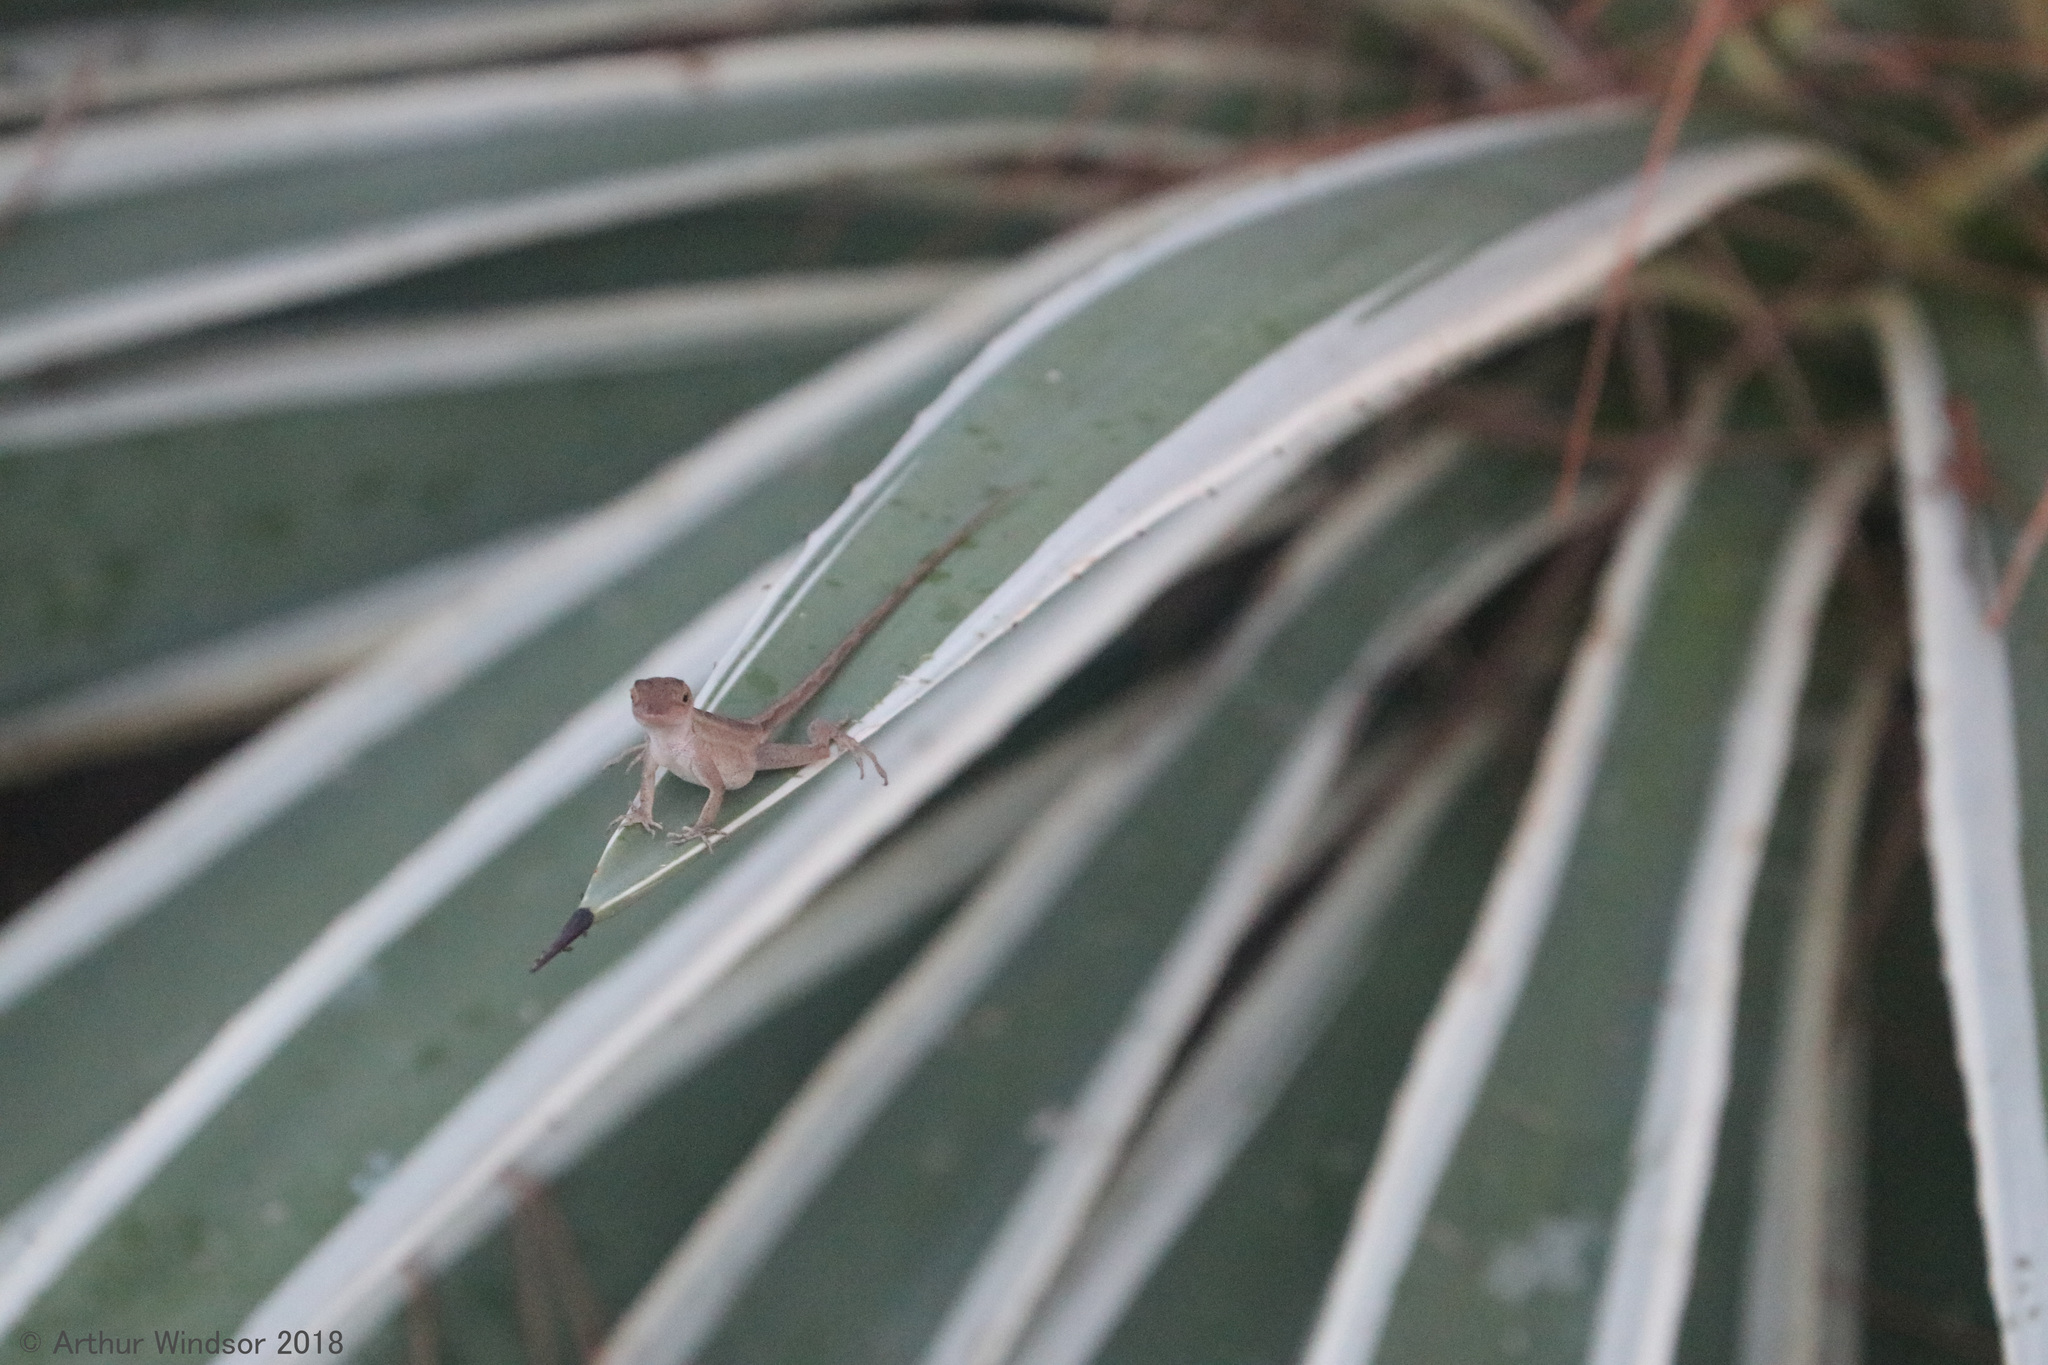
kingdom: Animalia
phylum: Chordata
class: Squamata
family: Dactyloidae
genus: Anolis
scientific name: Anolis sagrei
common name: Brown anole
